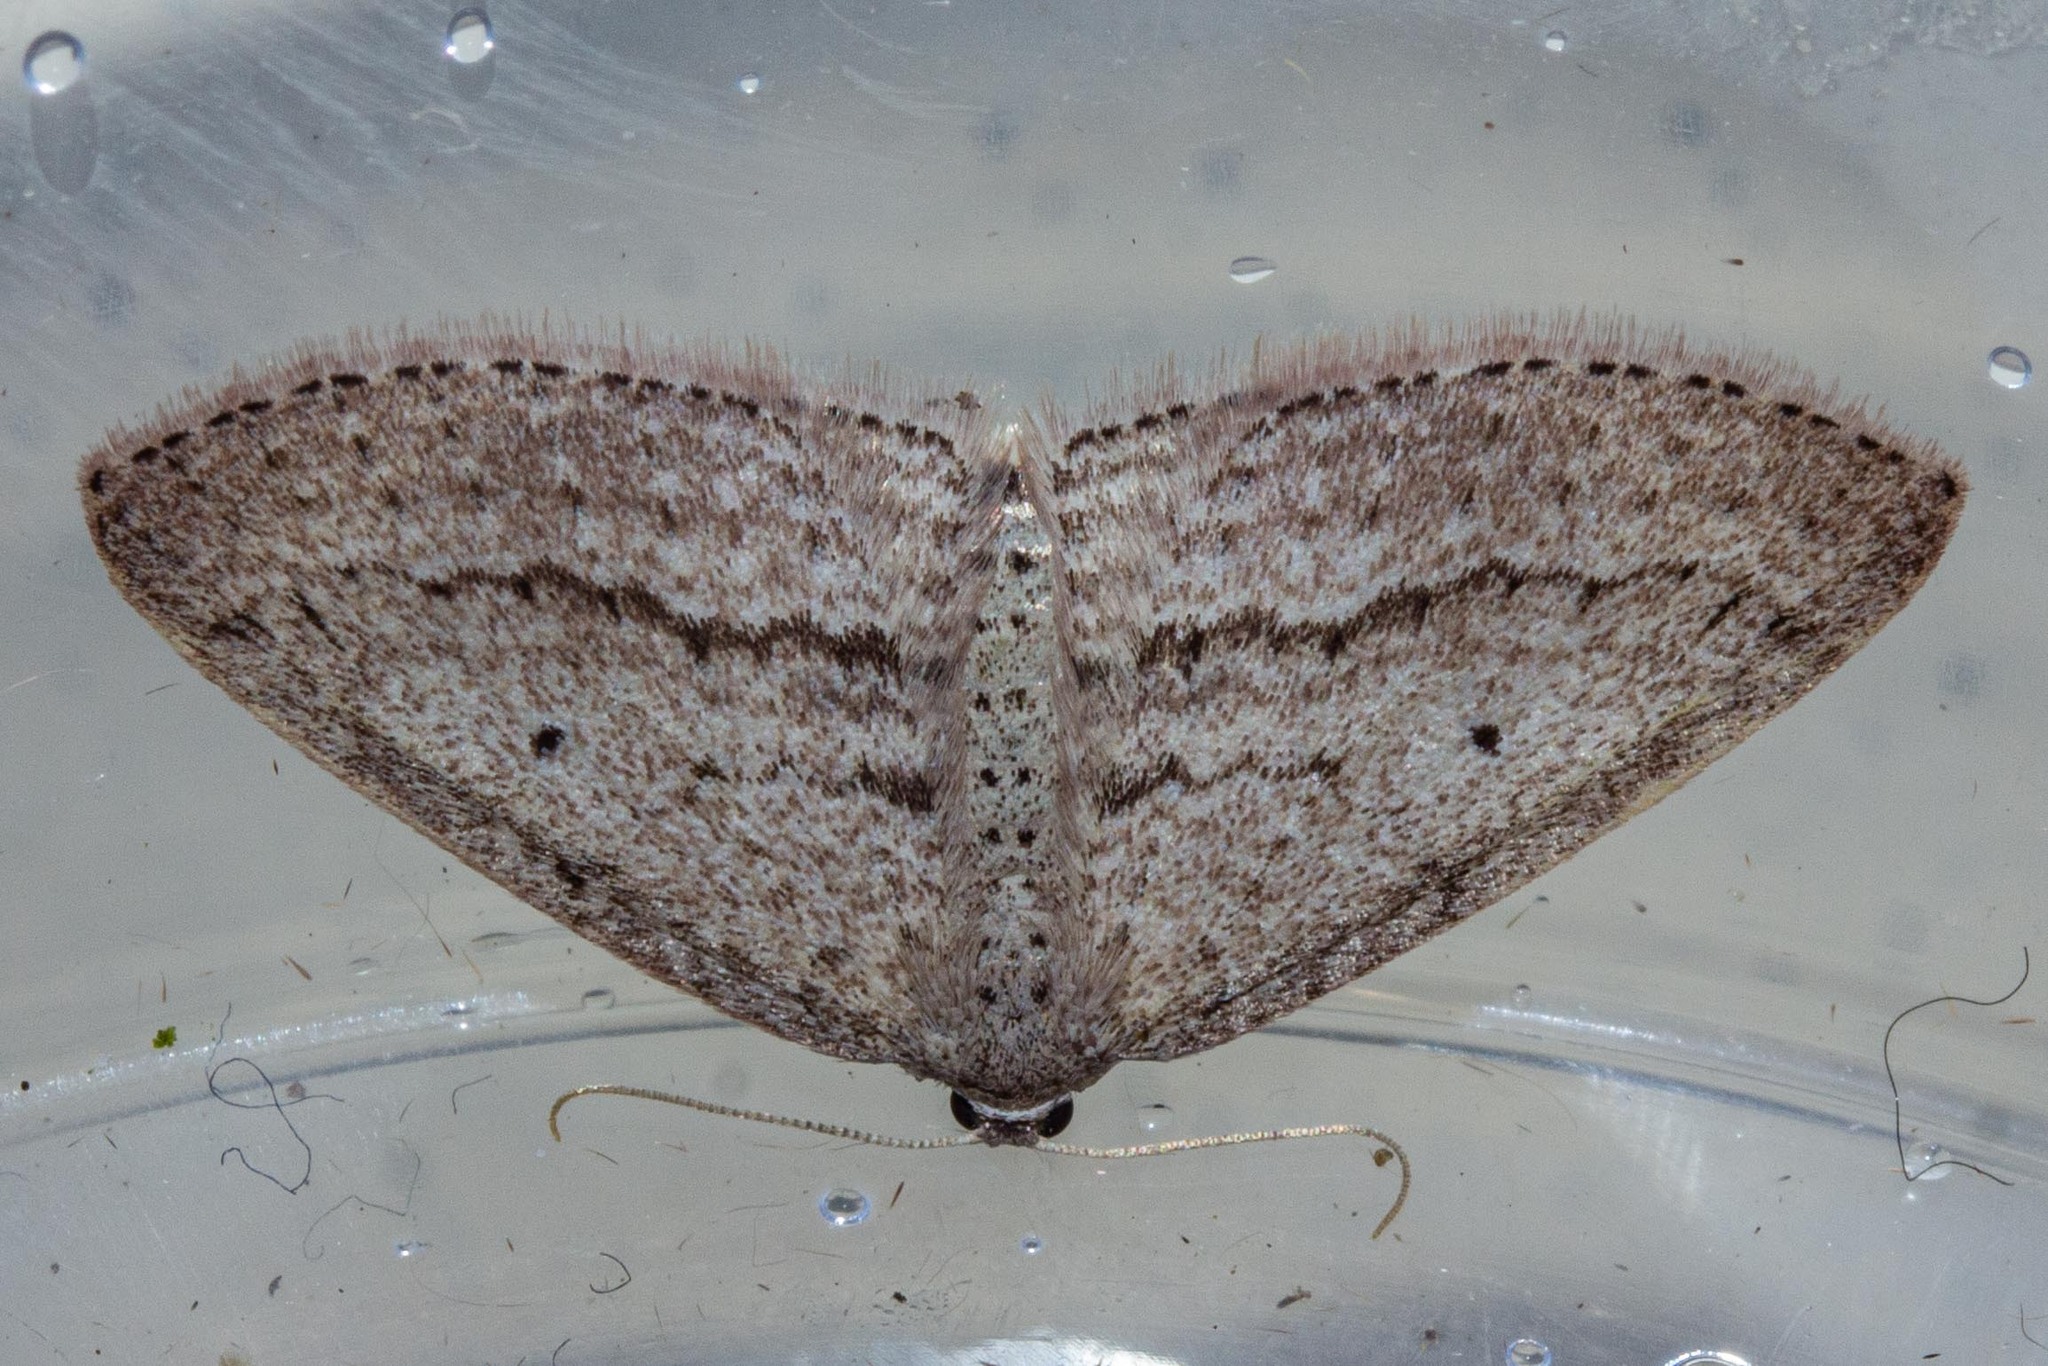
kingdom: Animalia
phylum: Arthropoda
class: Insecta
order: Lepidoptera
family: Geometridae
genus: Poecilasthena
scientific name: Poecilasthena schistaria
